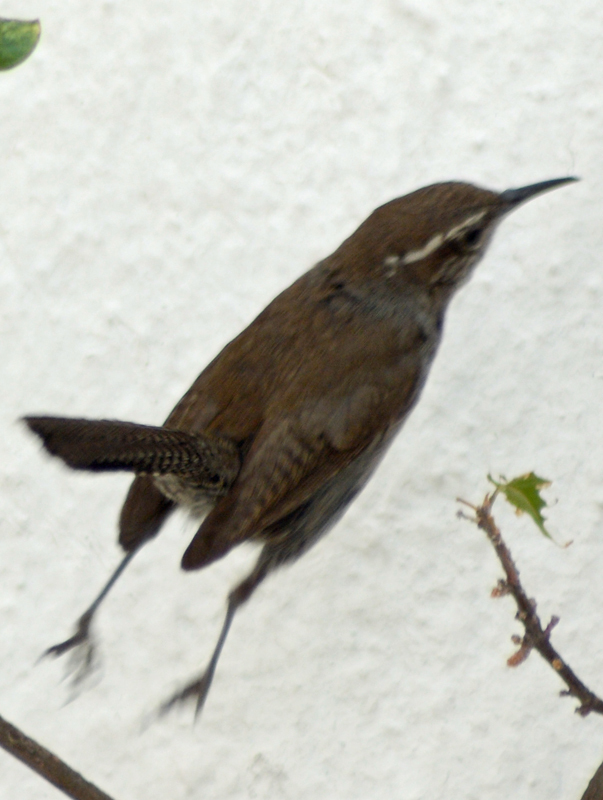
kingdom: Animalia
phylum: Chordata
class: Aves
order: Passeriformes
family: Troglodytidae
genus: Thryomanes
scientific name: Thryomanes bewickii
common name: Bewick's wren
